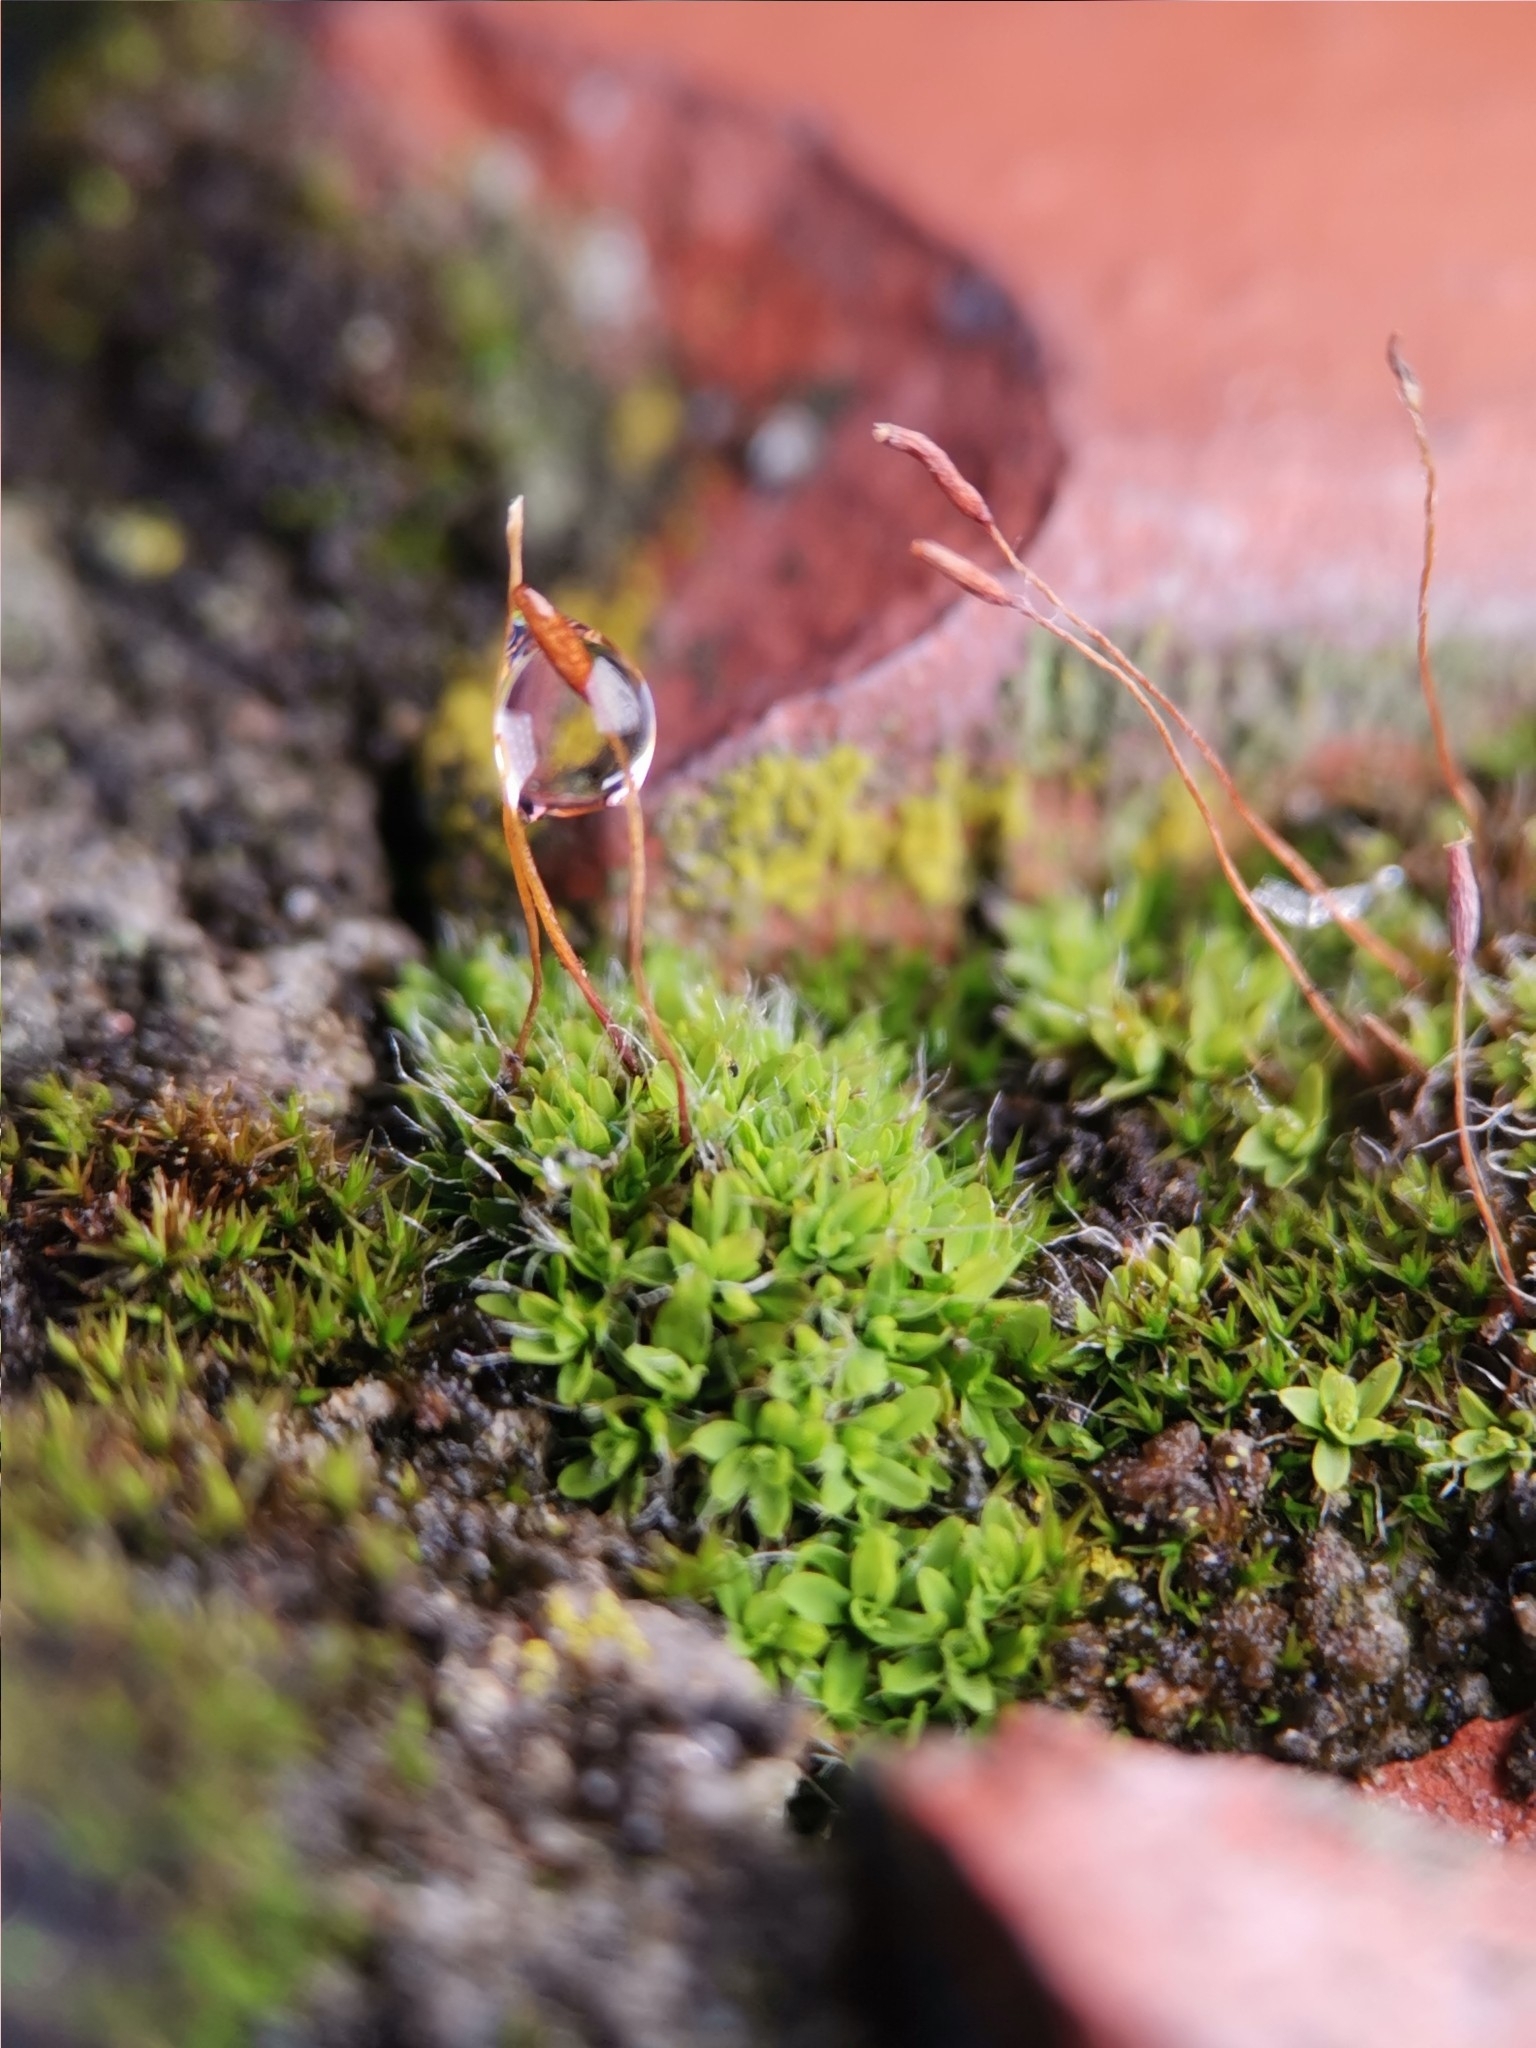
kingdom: Plantae
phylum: Bryophyta
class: Bryopsida
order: Pottiales
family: Pottiaceae
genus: Tortula
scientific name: Tortula muralis
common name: Wall screw-moss
